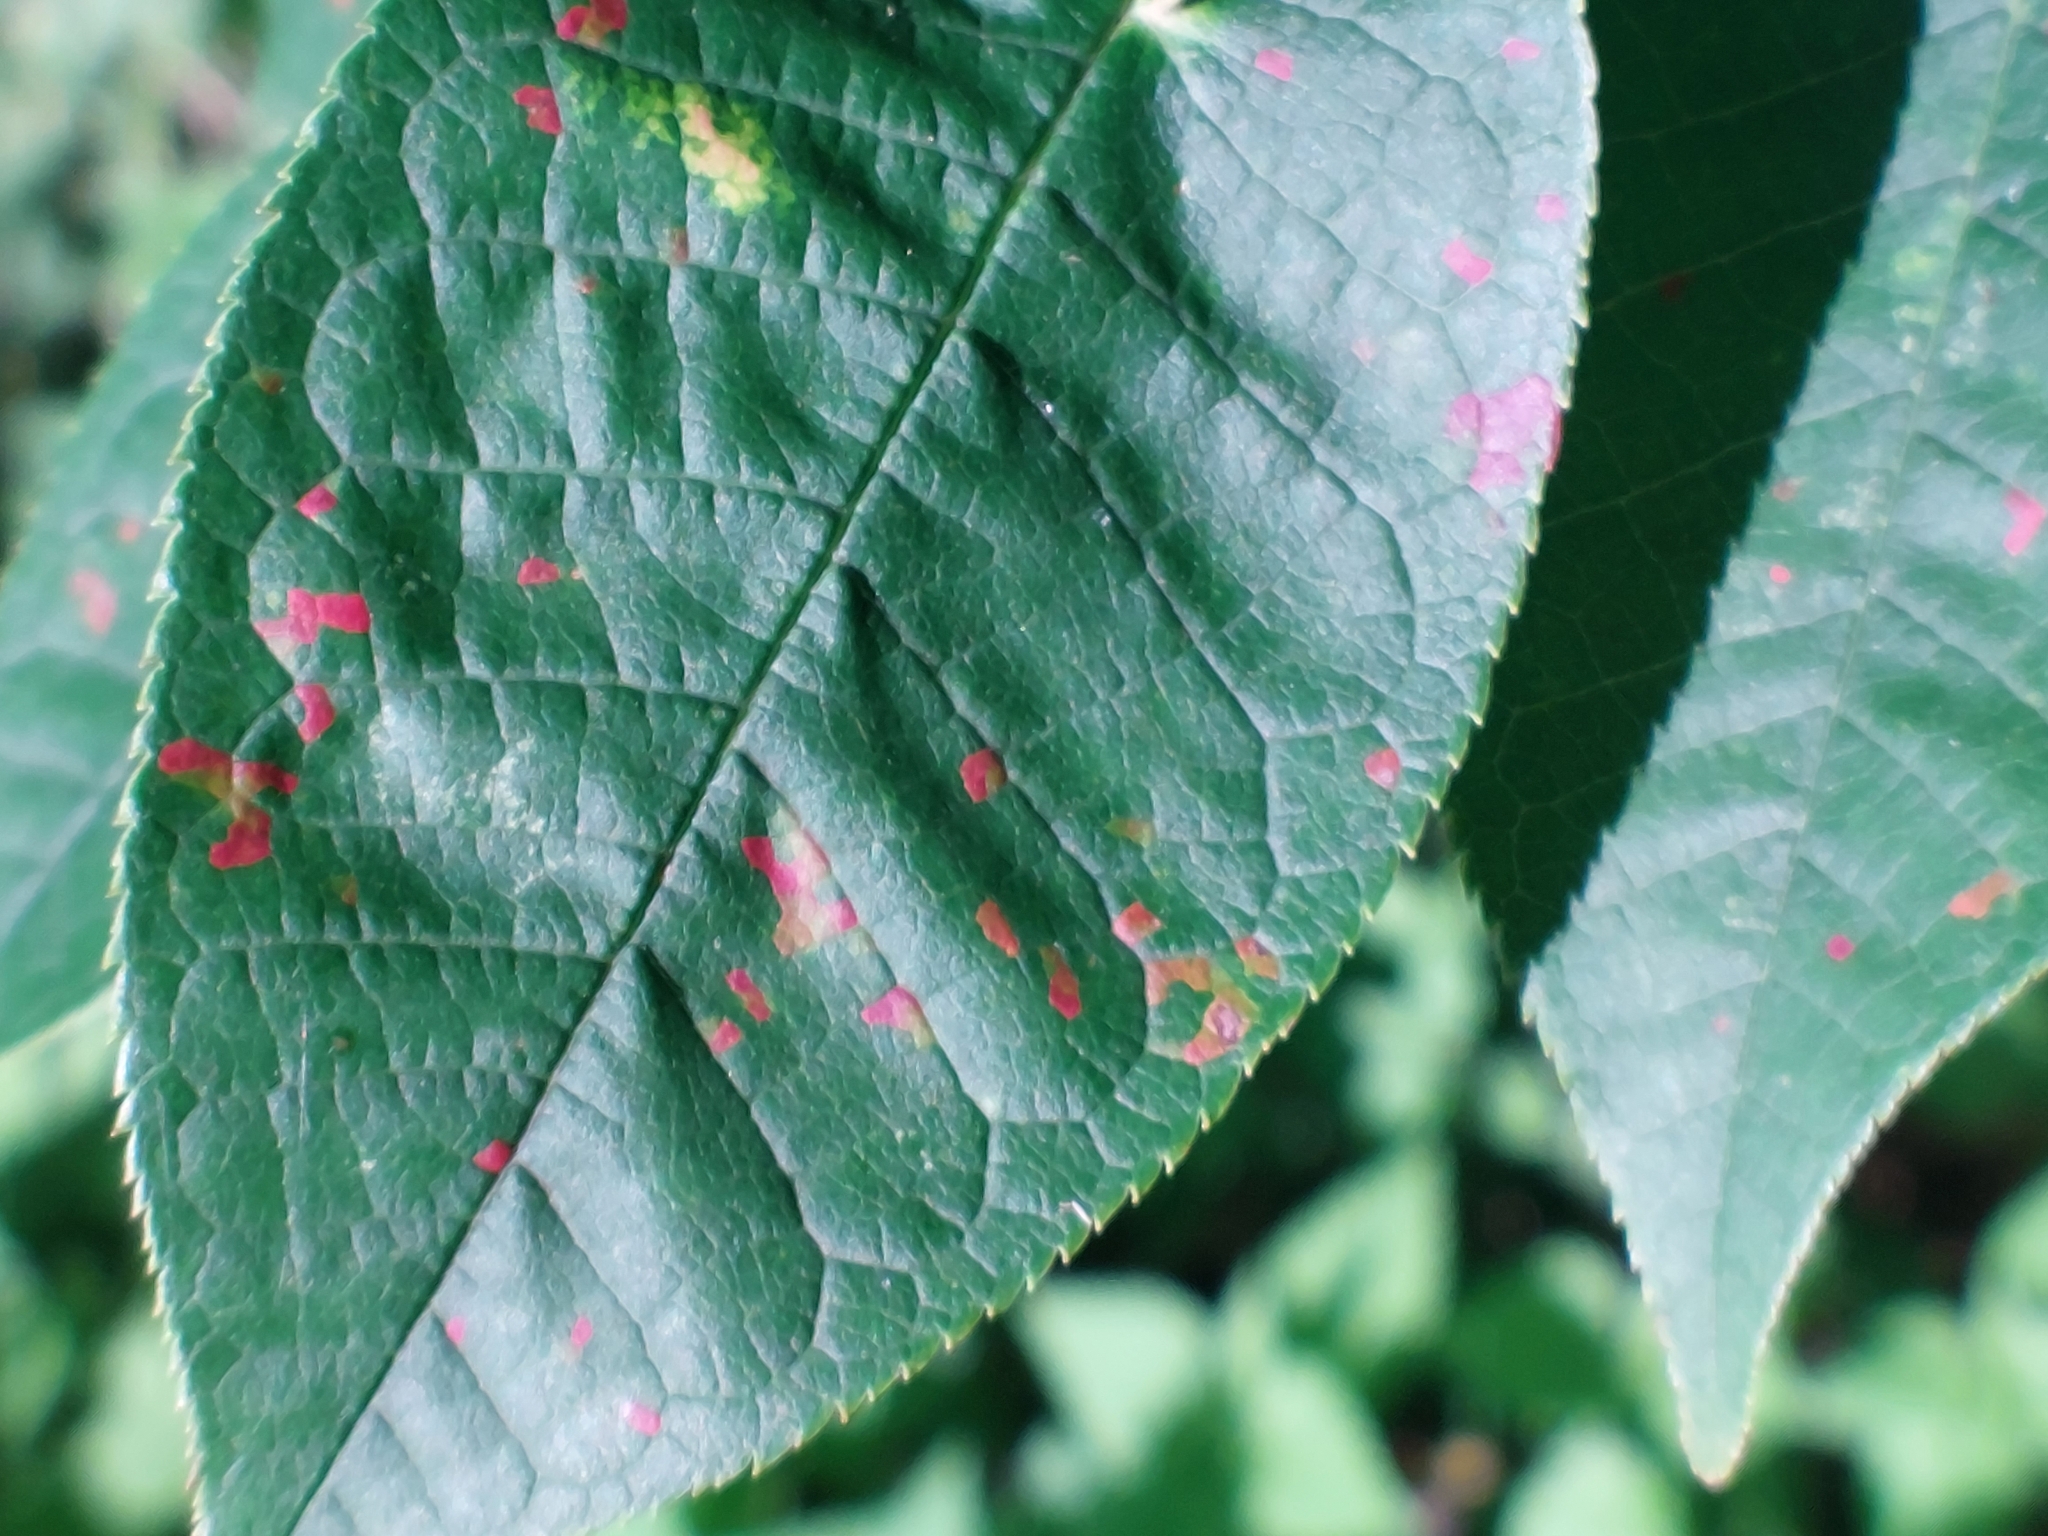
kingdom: Fungi
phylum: Basidiomycota
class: Pucciniomycetes
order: Pucciniales
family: Pucciniastraceae
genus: Thekopsora
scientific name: Thekopsora areolata
